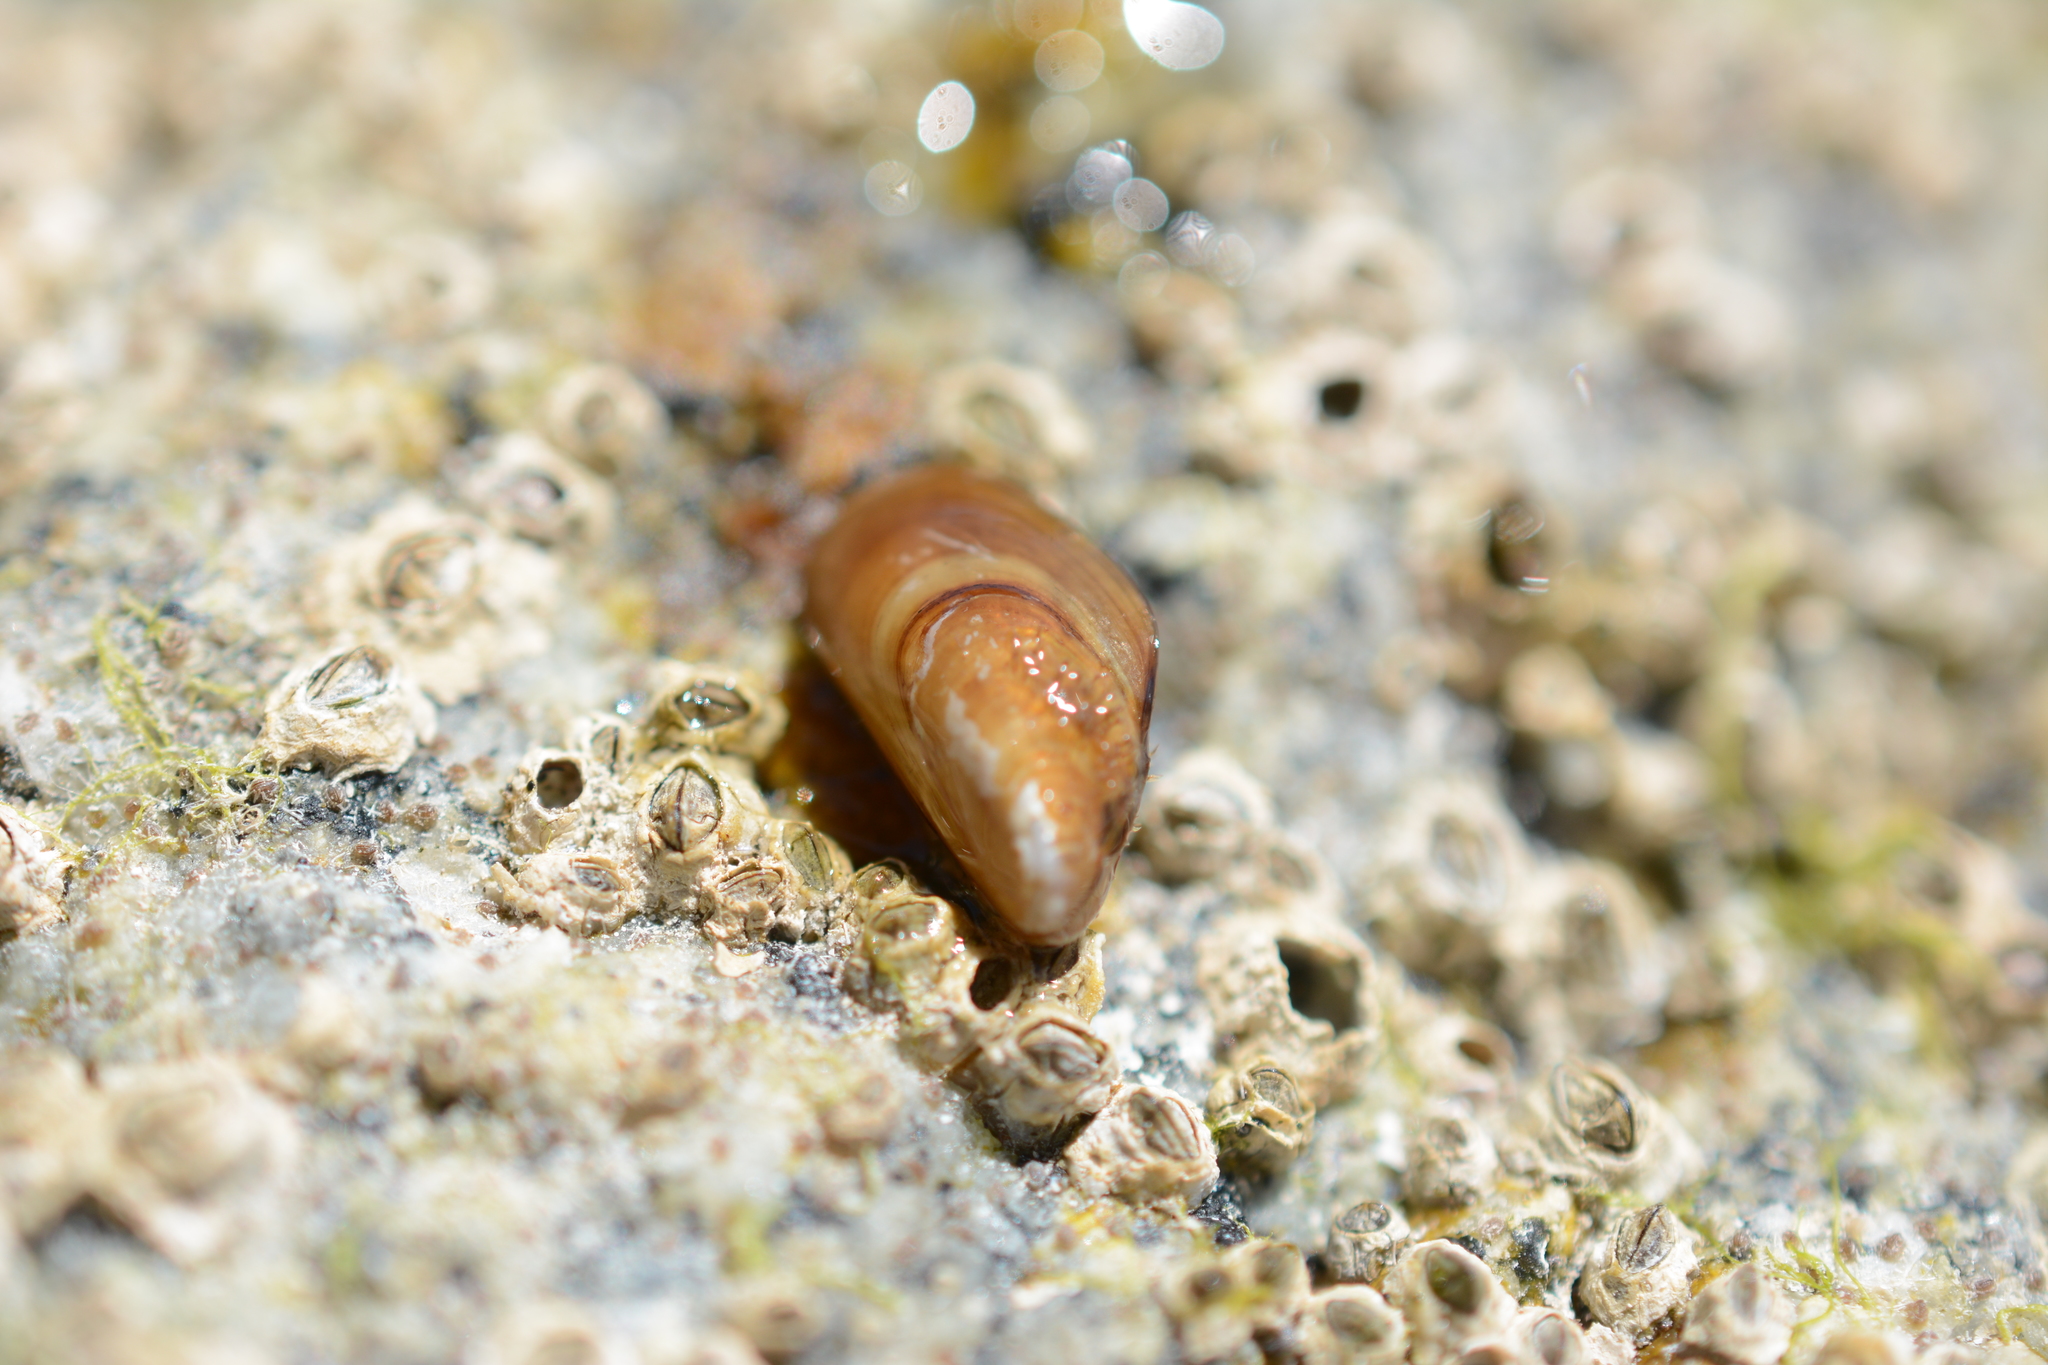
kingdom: Animalia
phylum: Mollusca
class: Bivalvia
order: Mytilida
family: Mytilidae
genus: Mytilus
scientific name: Mytilus
